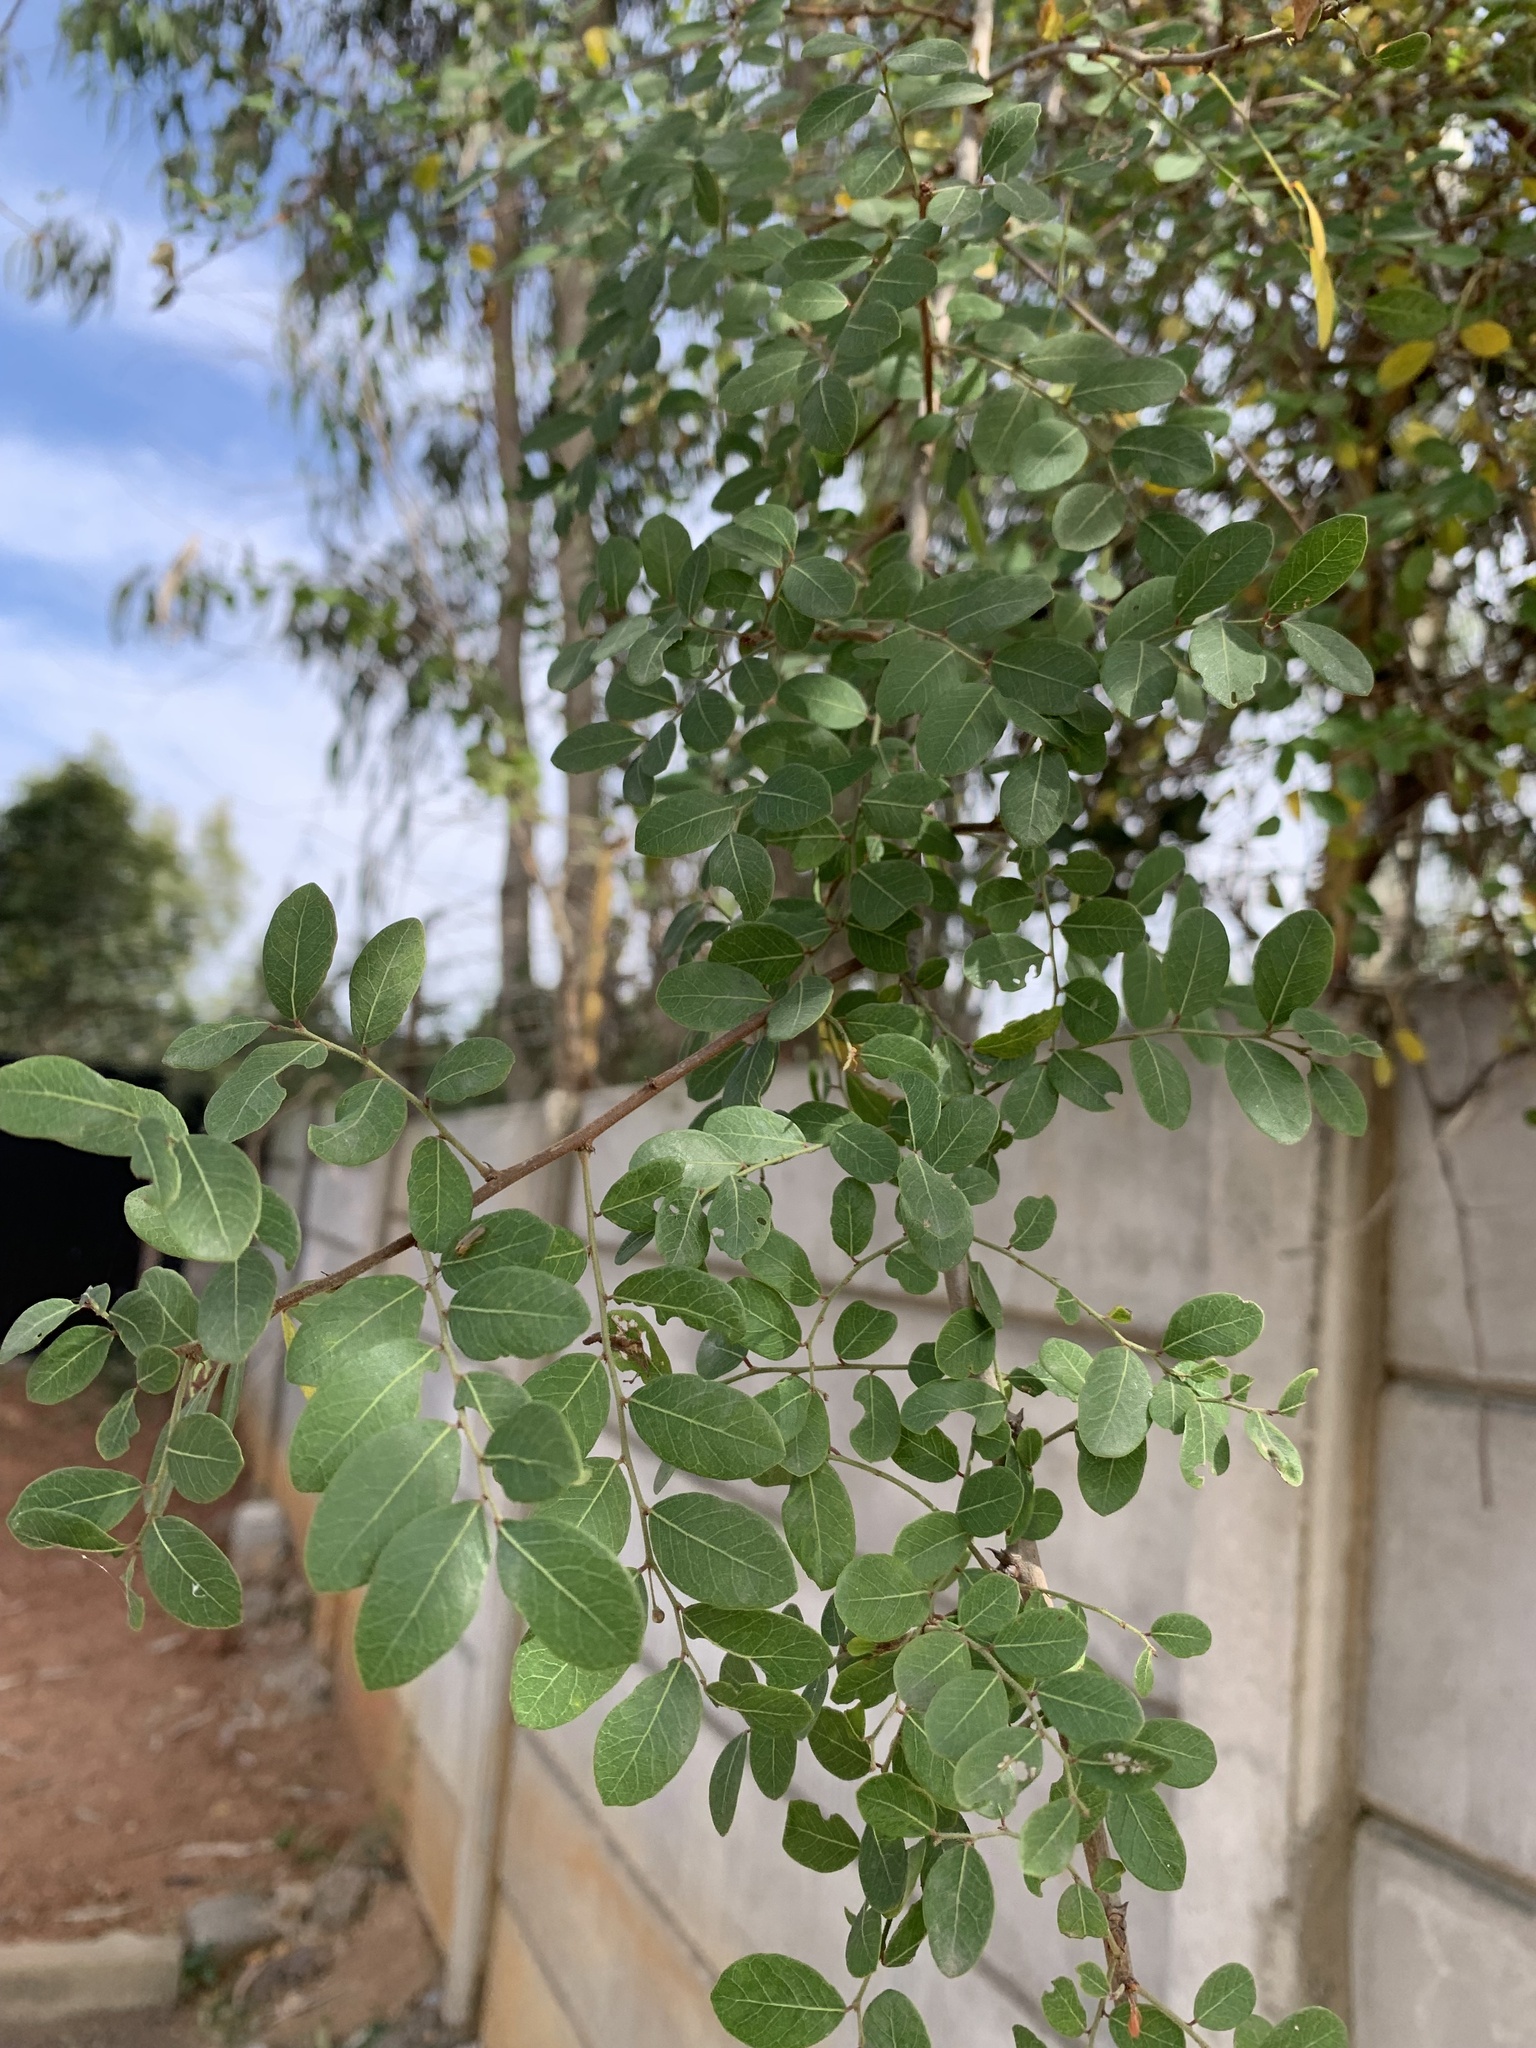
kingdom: Plantae
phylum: Tracheophyta
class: Magnoliopsida
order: Malpighiales
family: Phyllanthaceae
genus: Phyllanthus
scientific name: Phyllanthus reticulatus
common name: Potato bush
